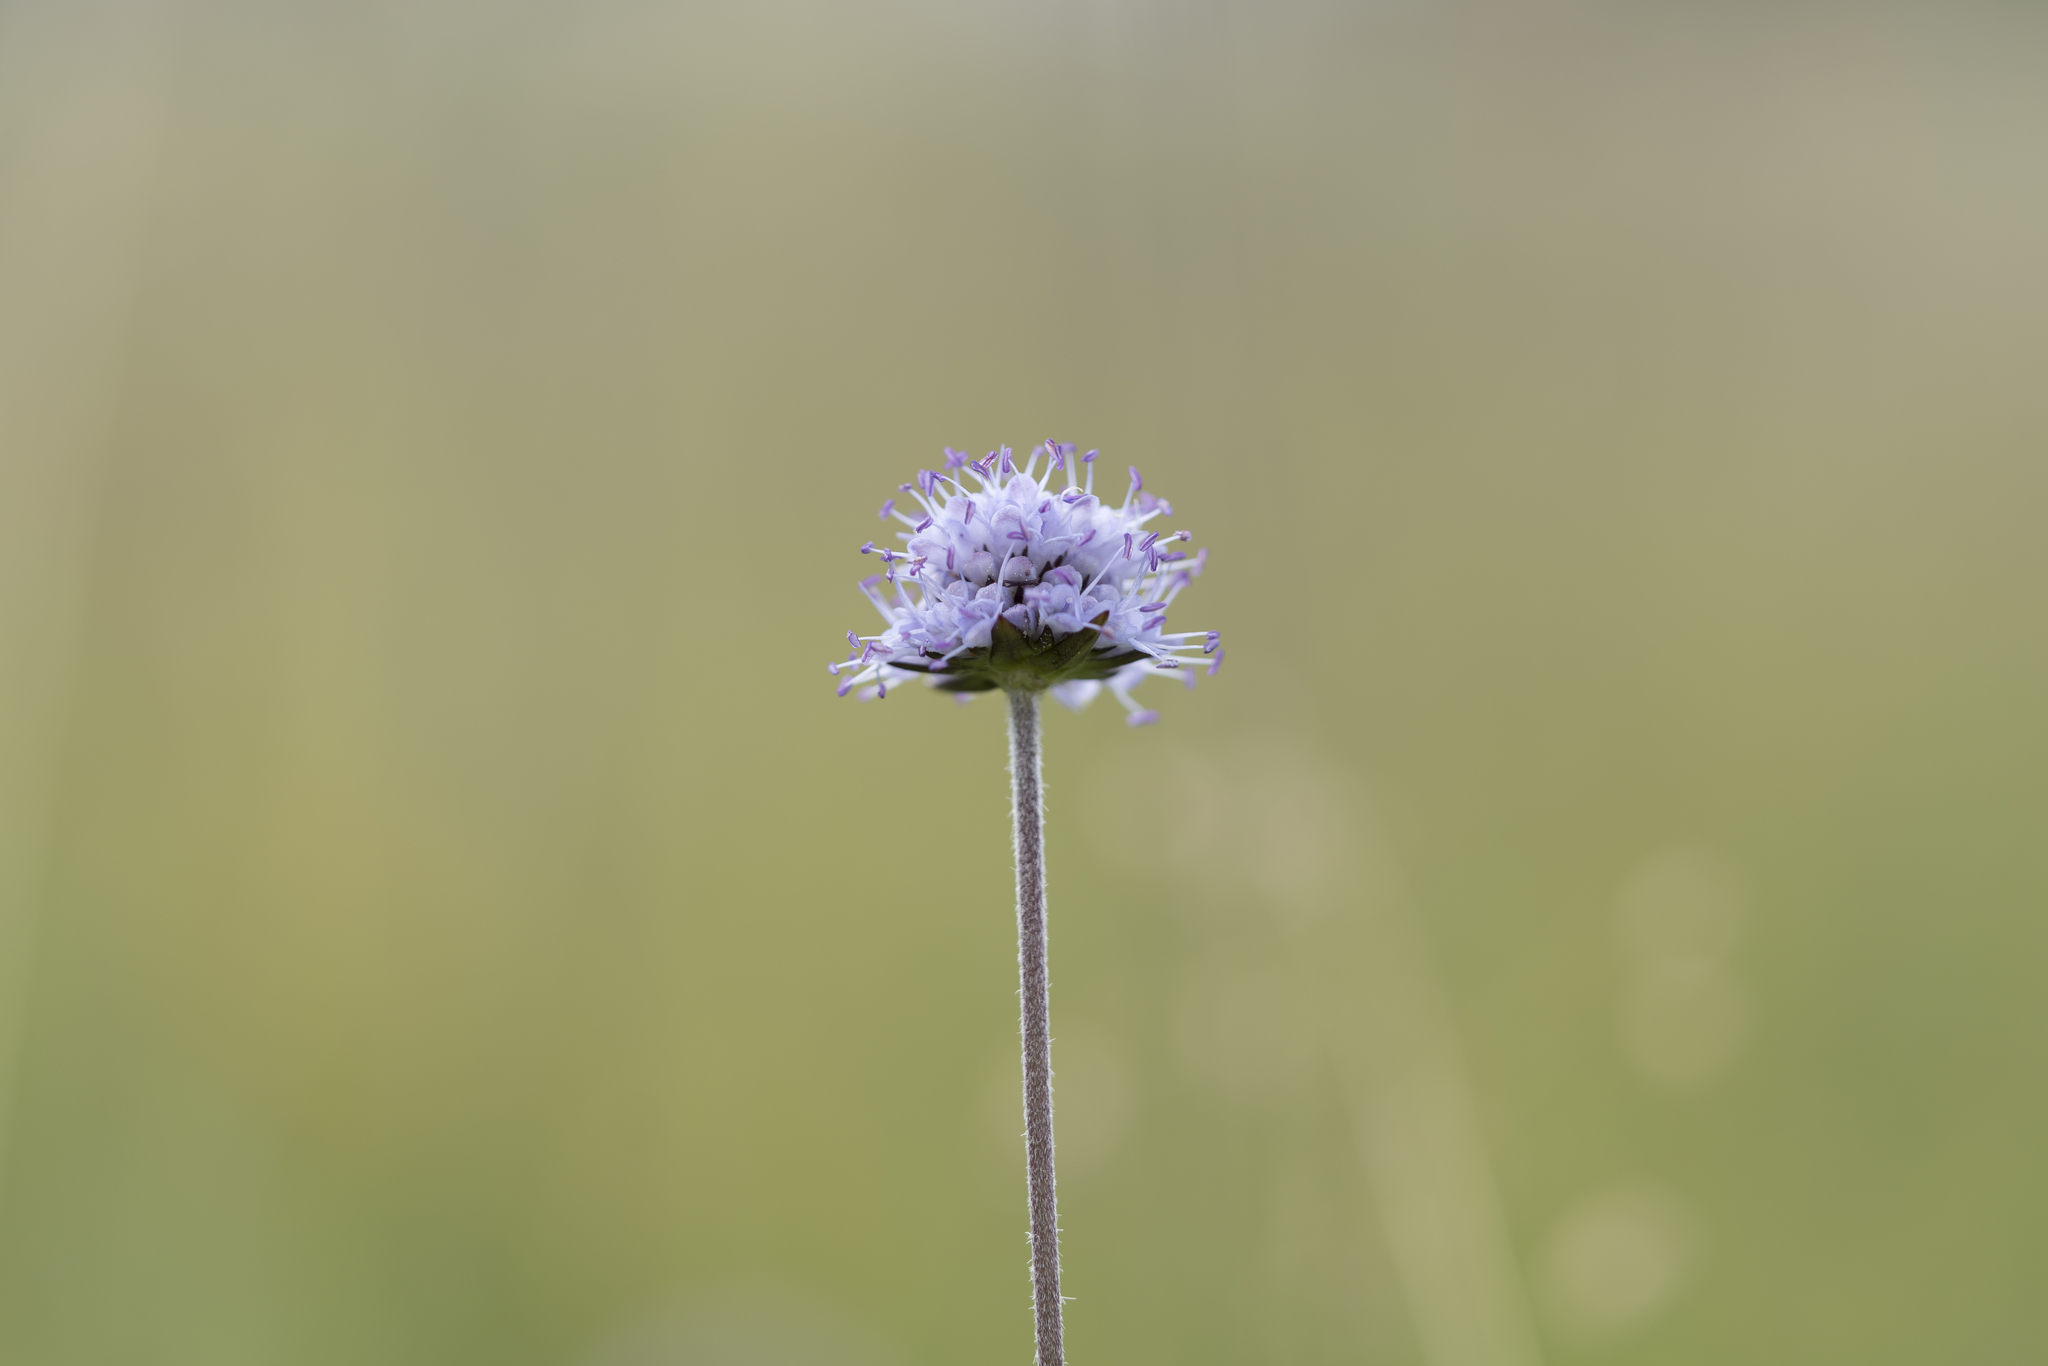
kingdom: Plantae
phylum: Tracheophyta
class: Magnoliopsida
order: Dipsacales
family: Caprifoliaceae
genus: Succisa
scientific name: Succisa pratensis
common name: Devil's-bit
